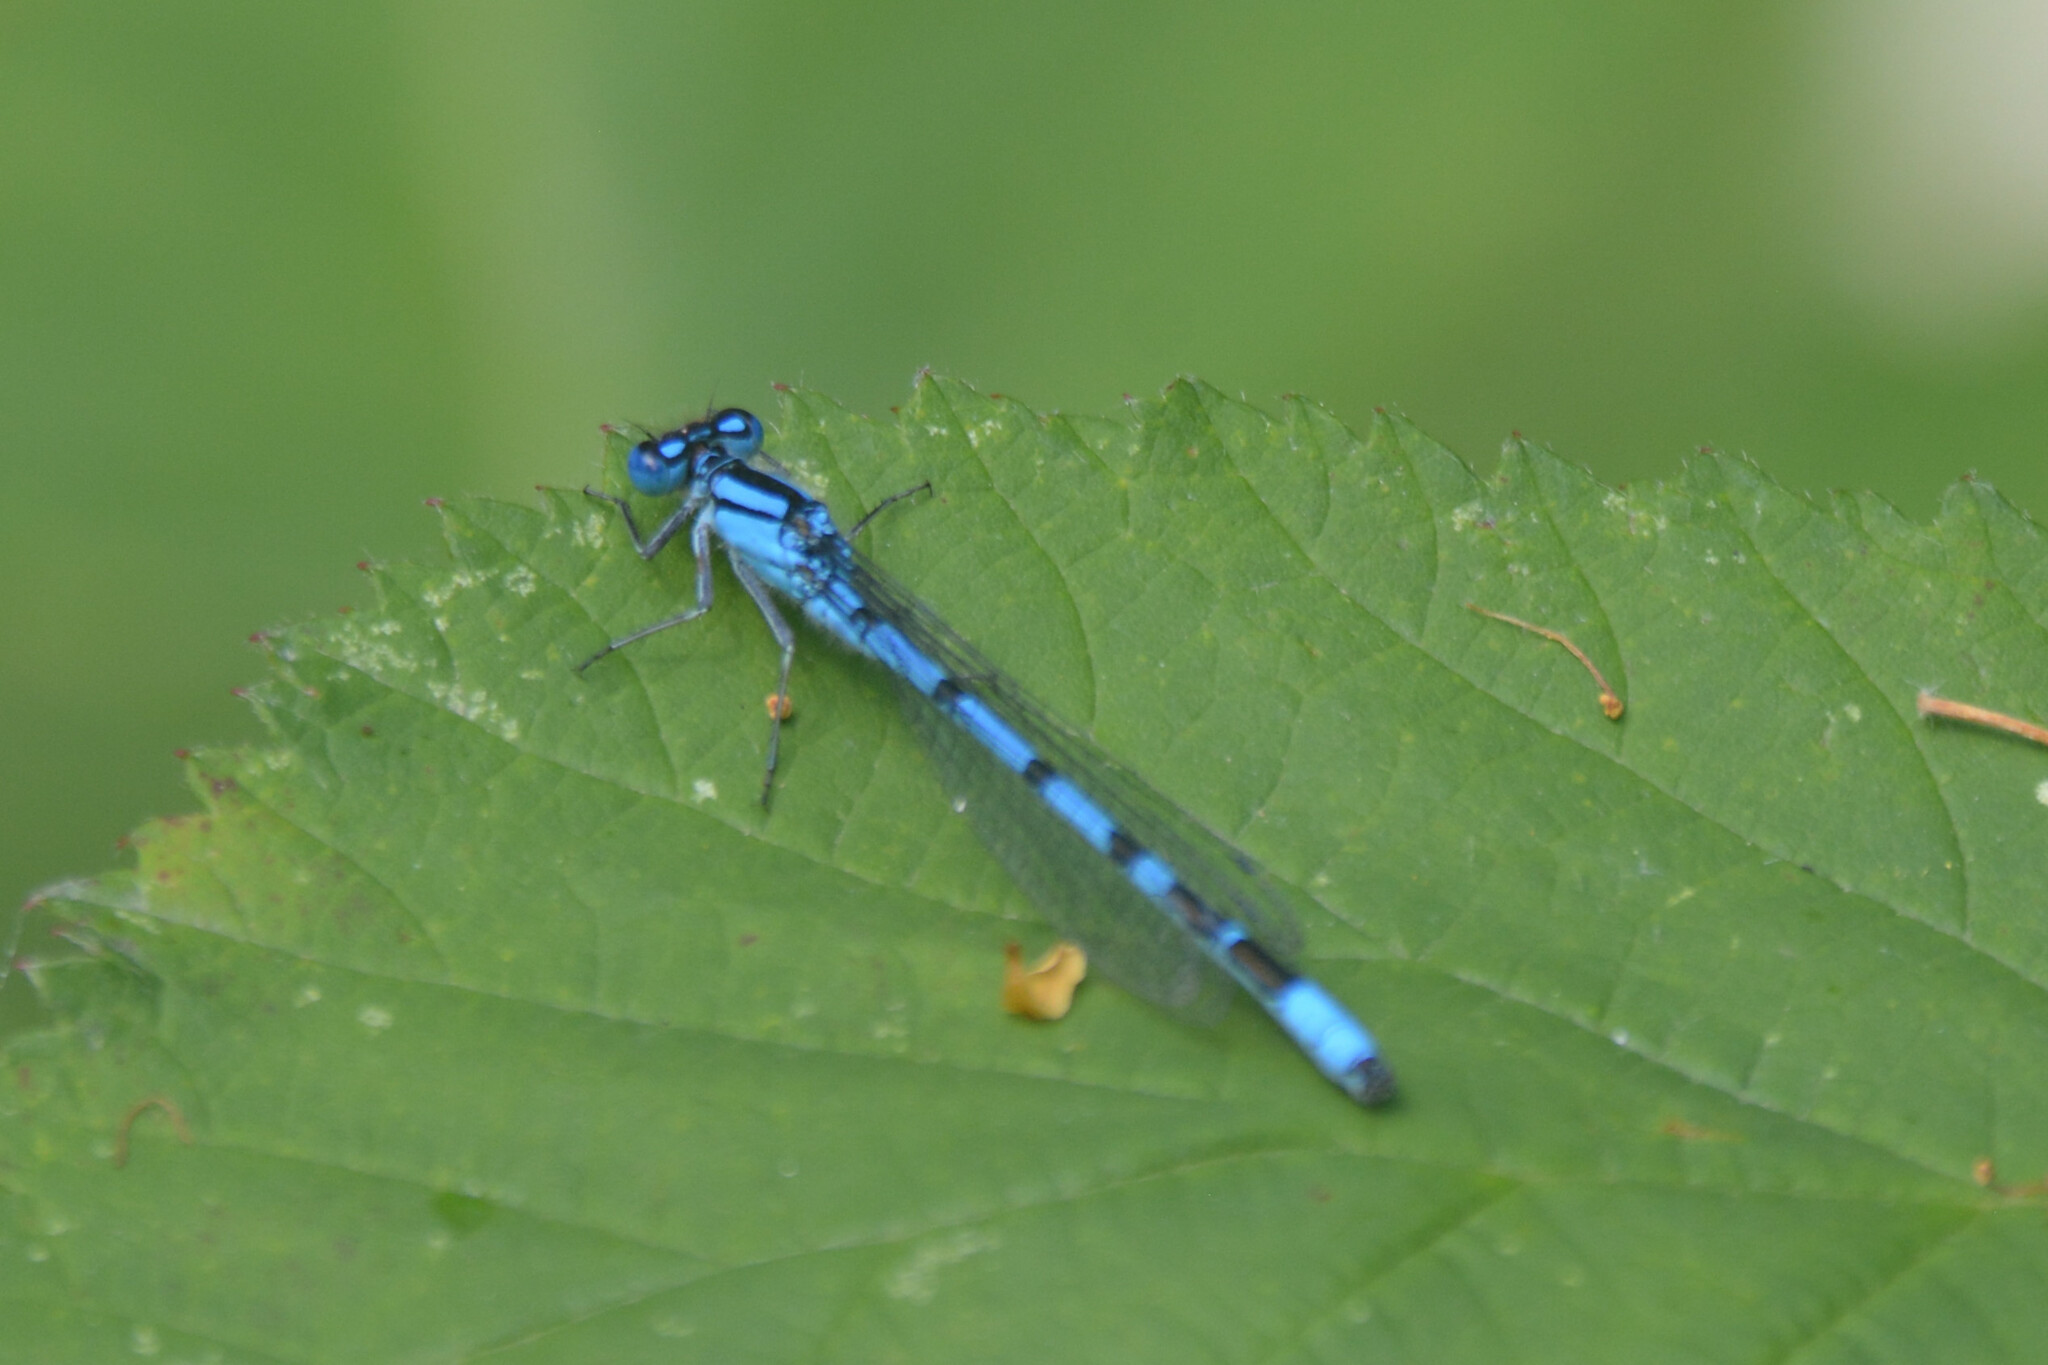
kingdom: Animalia
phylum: Arthropoda
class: Insecta
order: Odonata
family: Coenagrionidae
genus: Enallagma
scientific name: Enallagma cyathigerum
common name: Common blue damselfly
